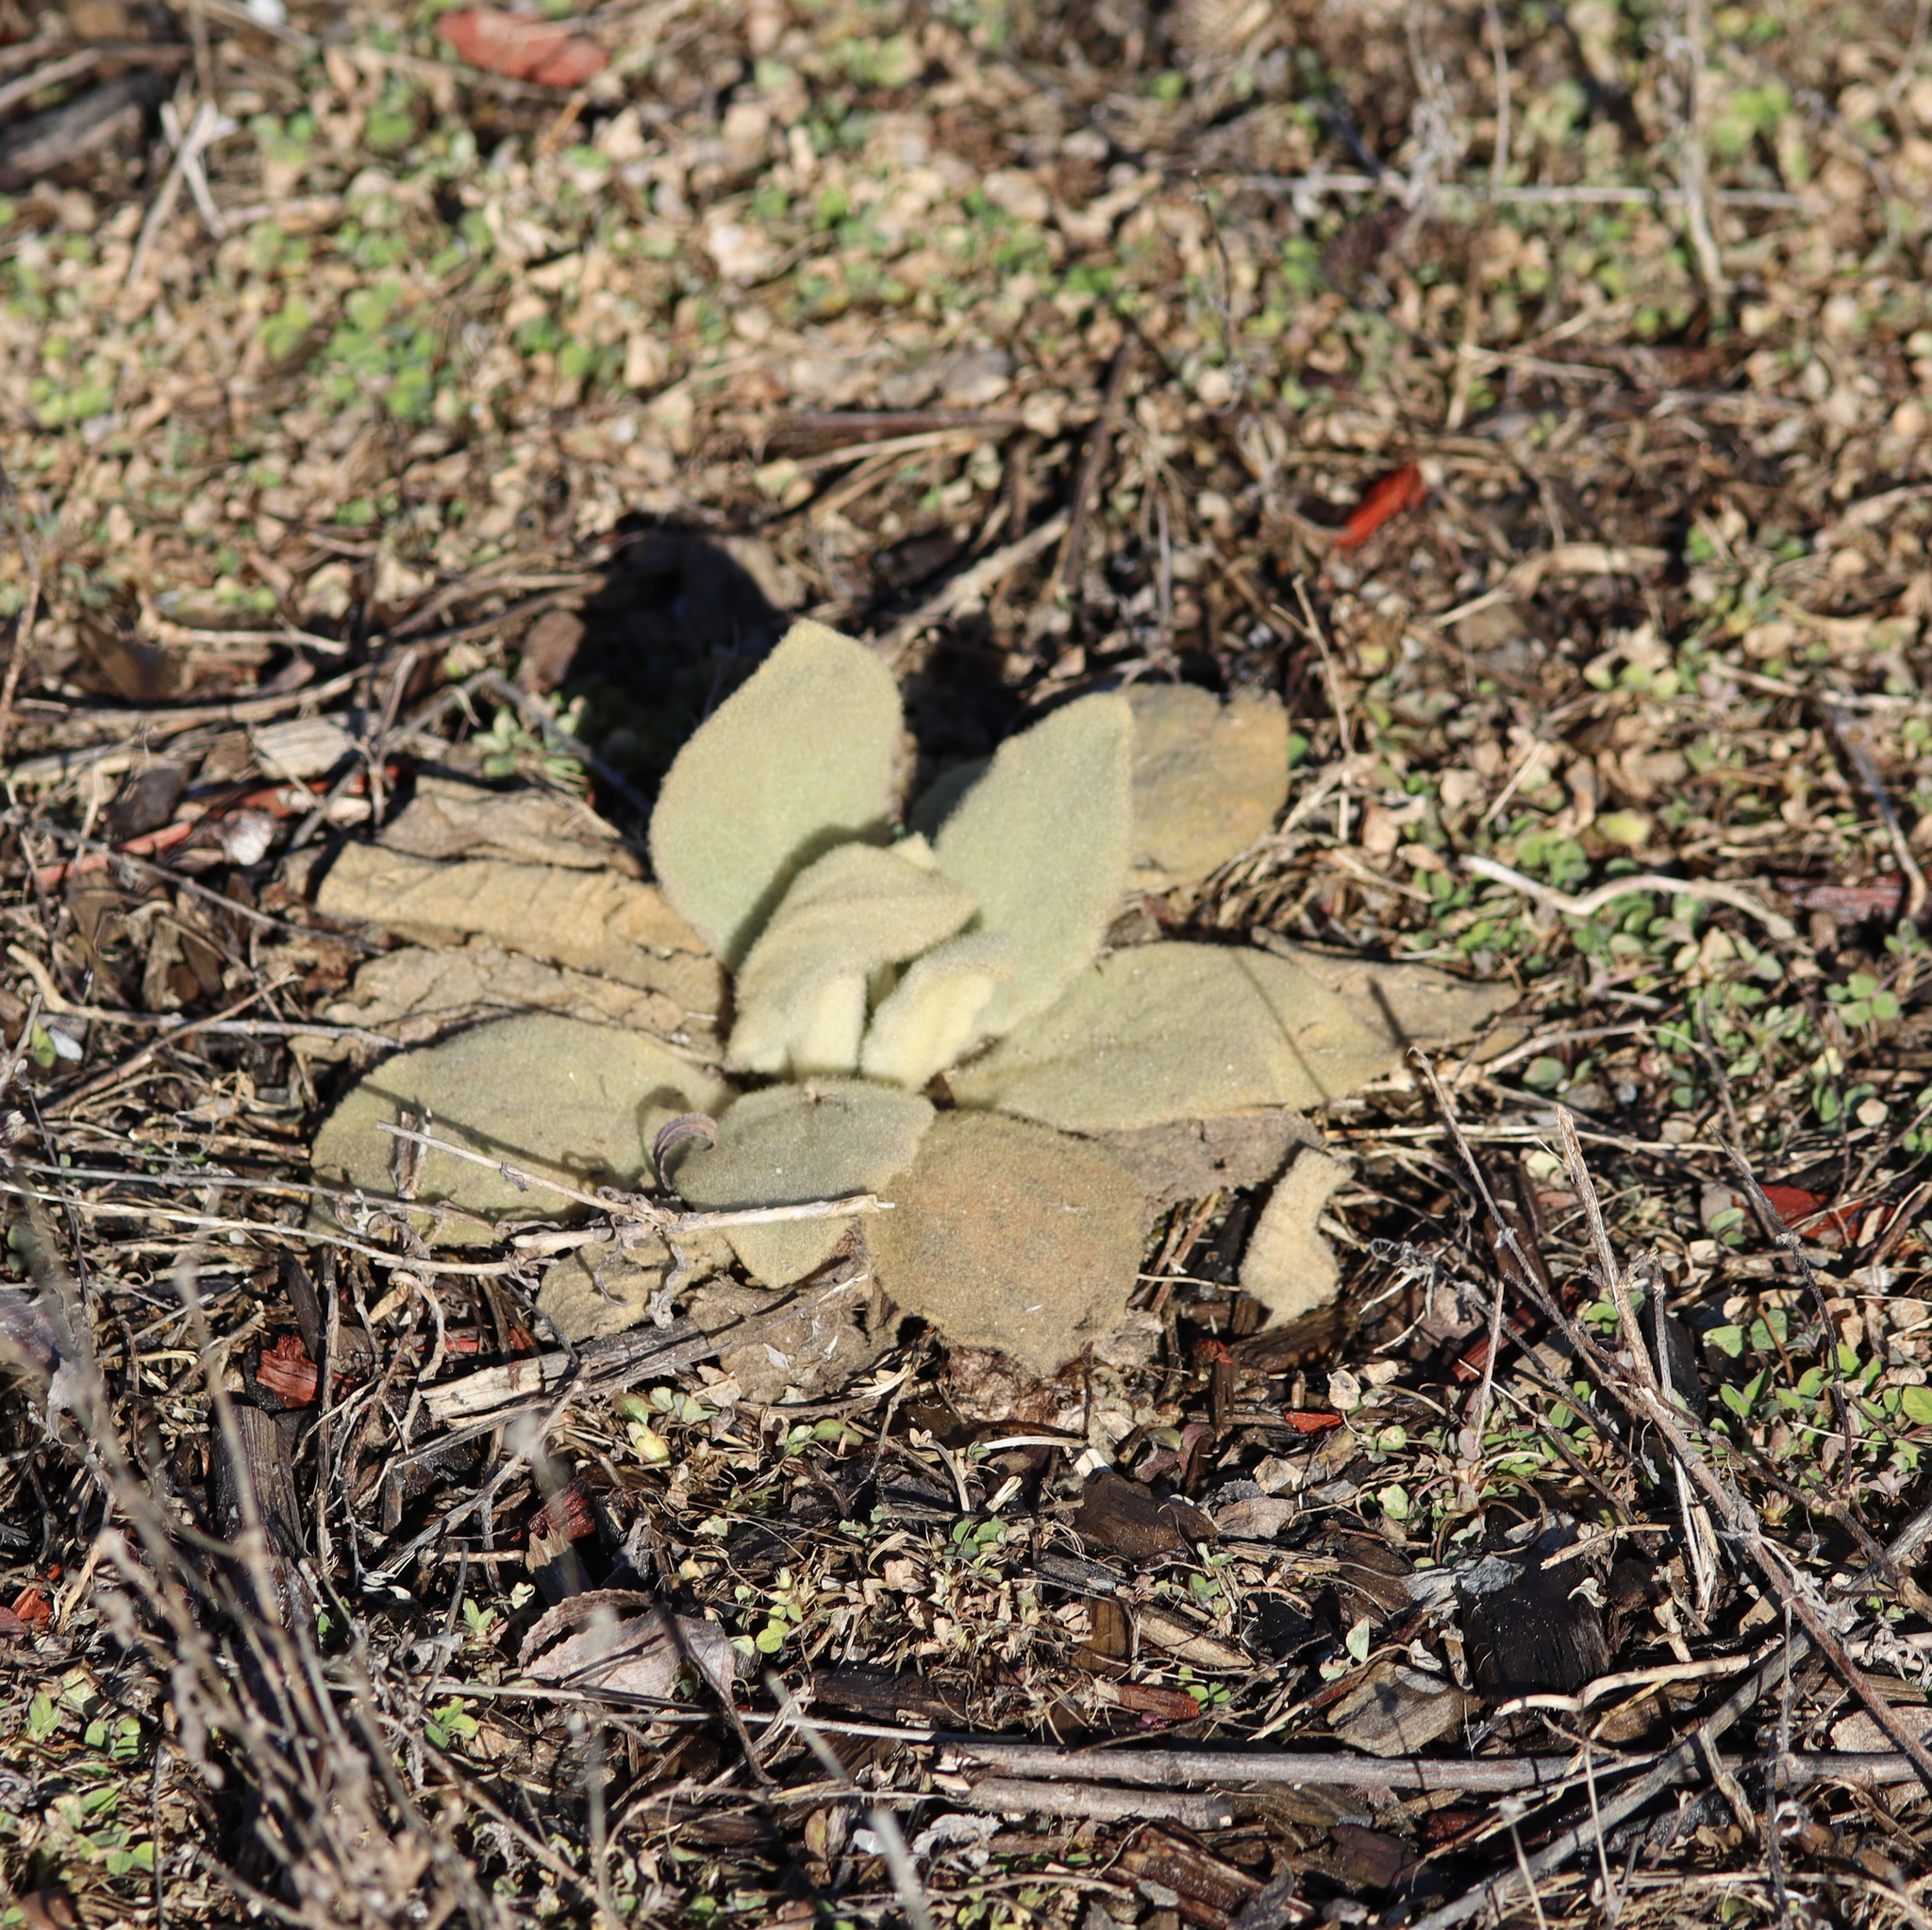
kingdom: Plantae
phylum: Tracheophyta
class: Magnoliopsida
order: Lamiales
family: Scrophulariaceae
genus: Verbascum
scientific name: Verbascum thapsus
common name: Common mullein
